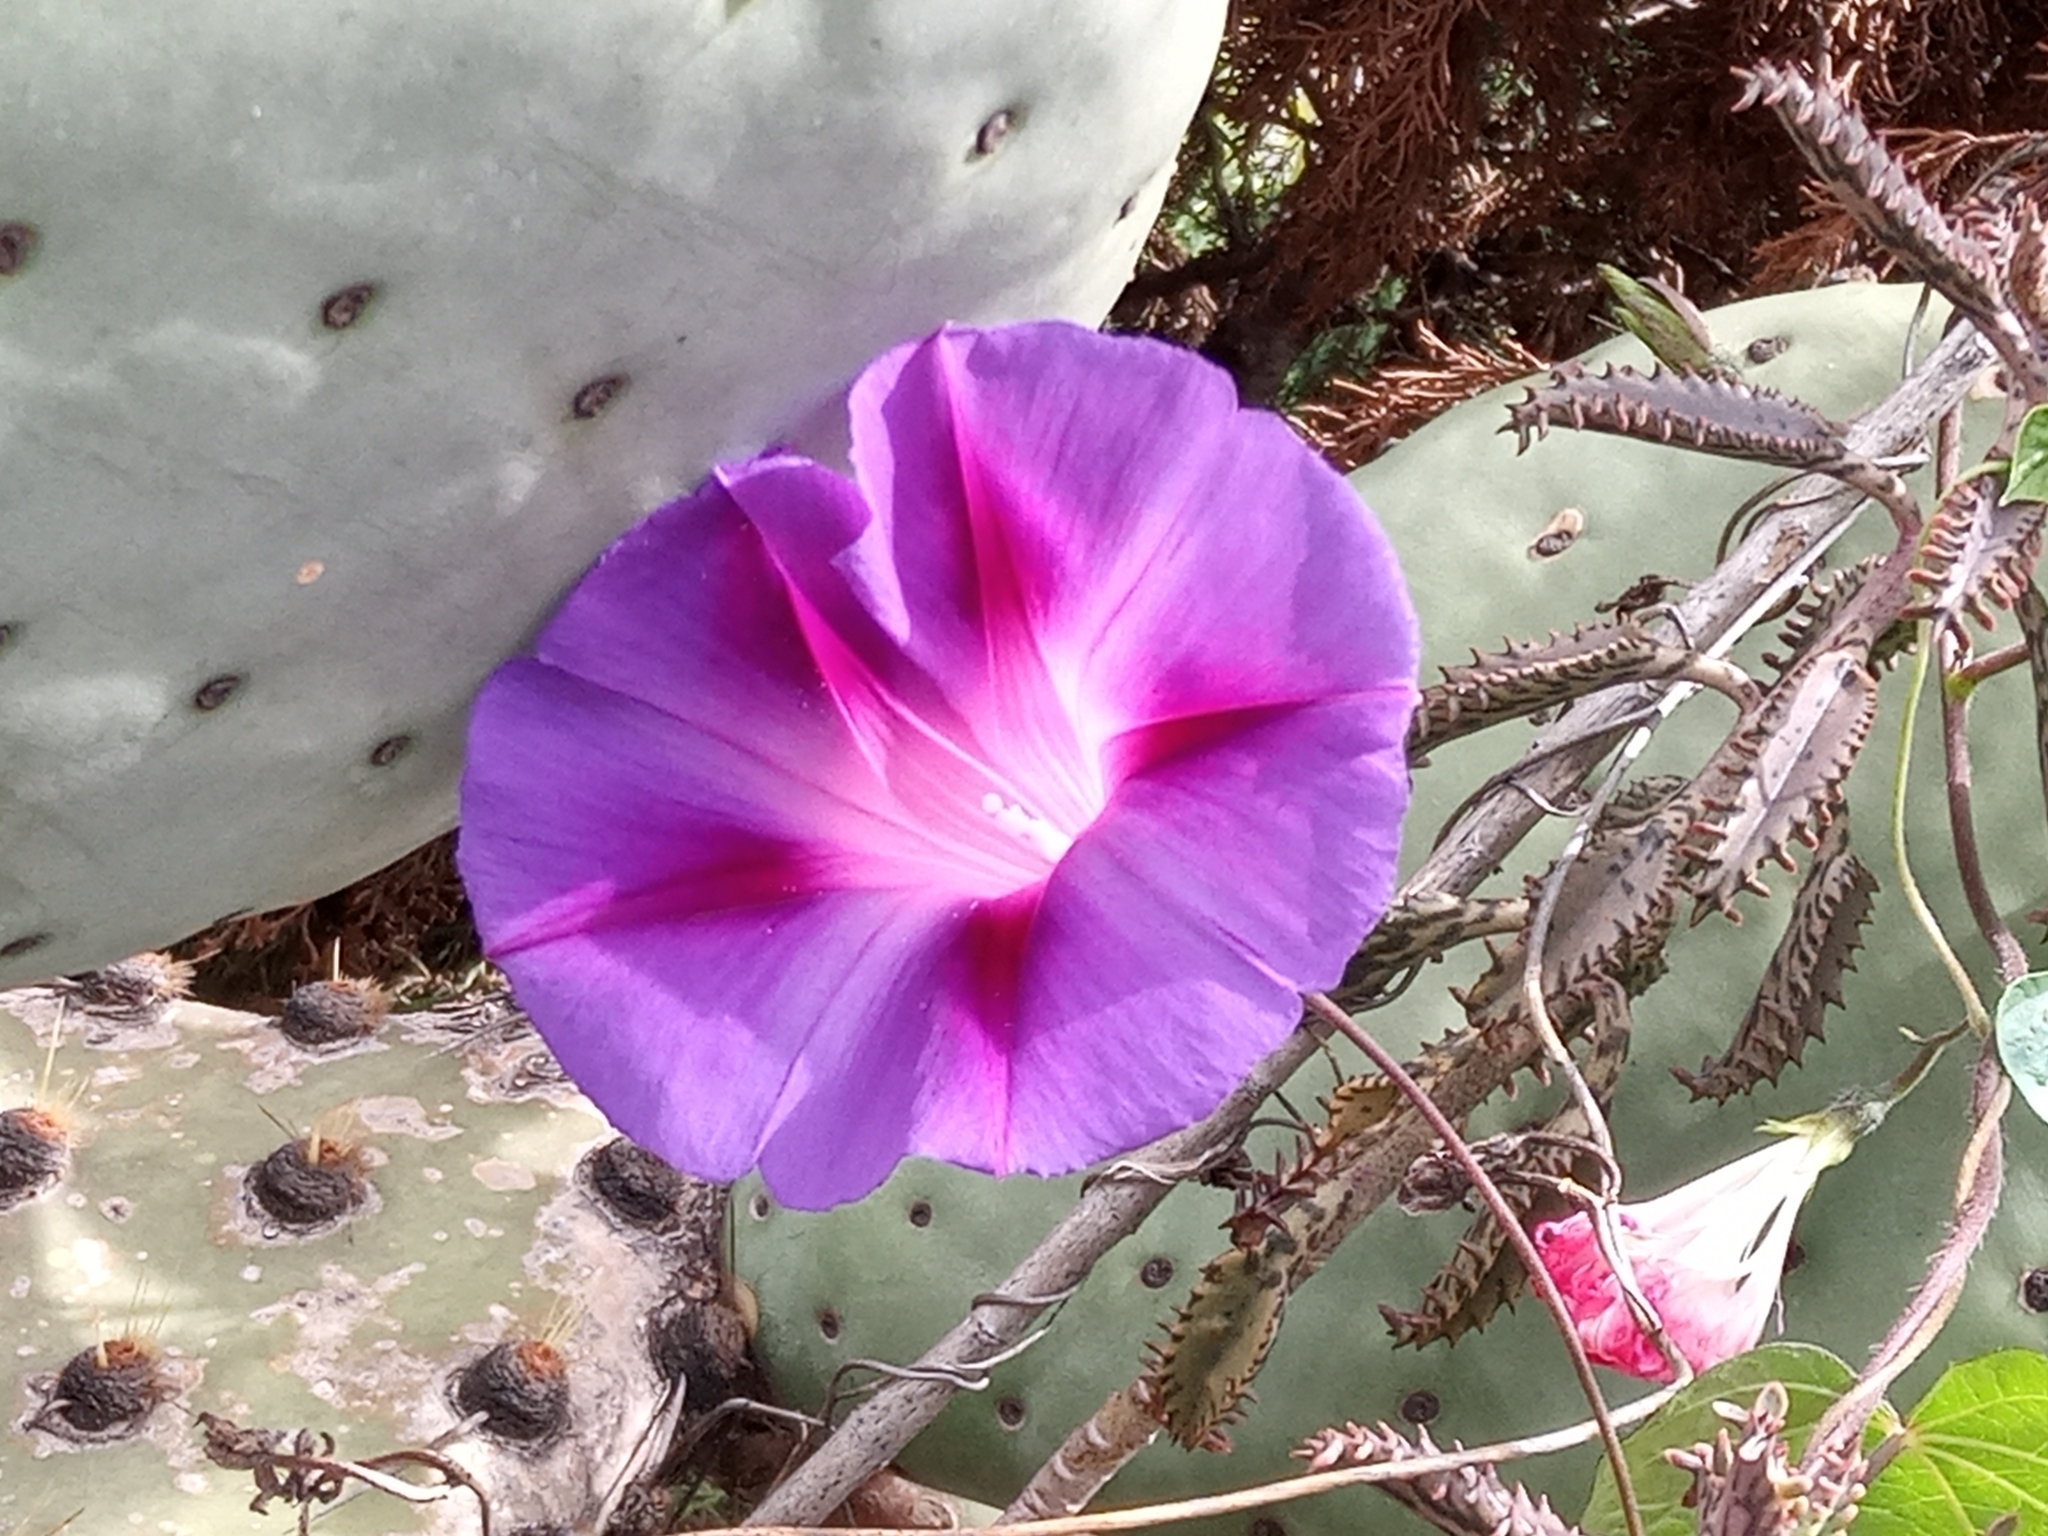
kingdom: Plantae
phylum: Tracheophyta
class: Magnoliopsida
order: Solanales
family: Convolvulaceae
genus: Ipomoea
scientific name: Ipomoea purpurea
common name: Common morning-glory
